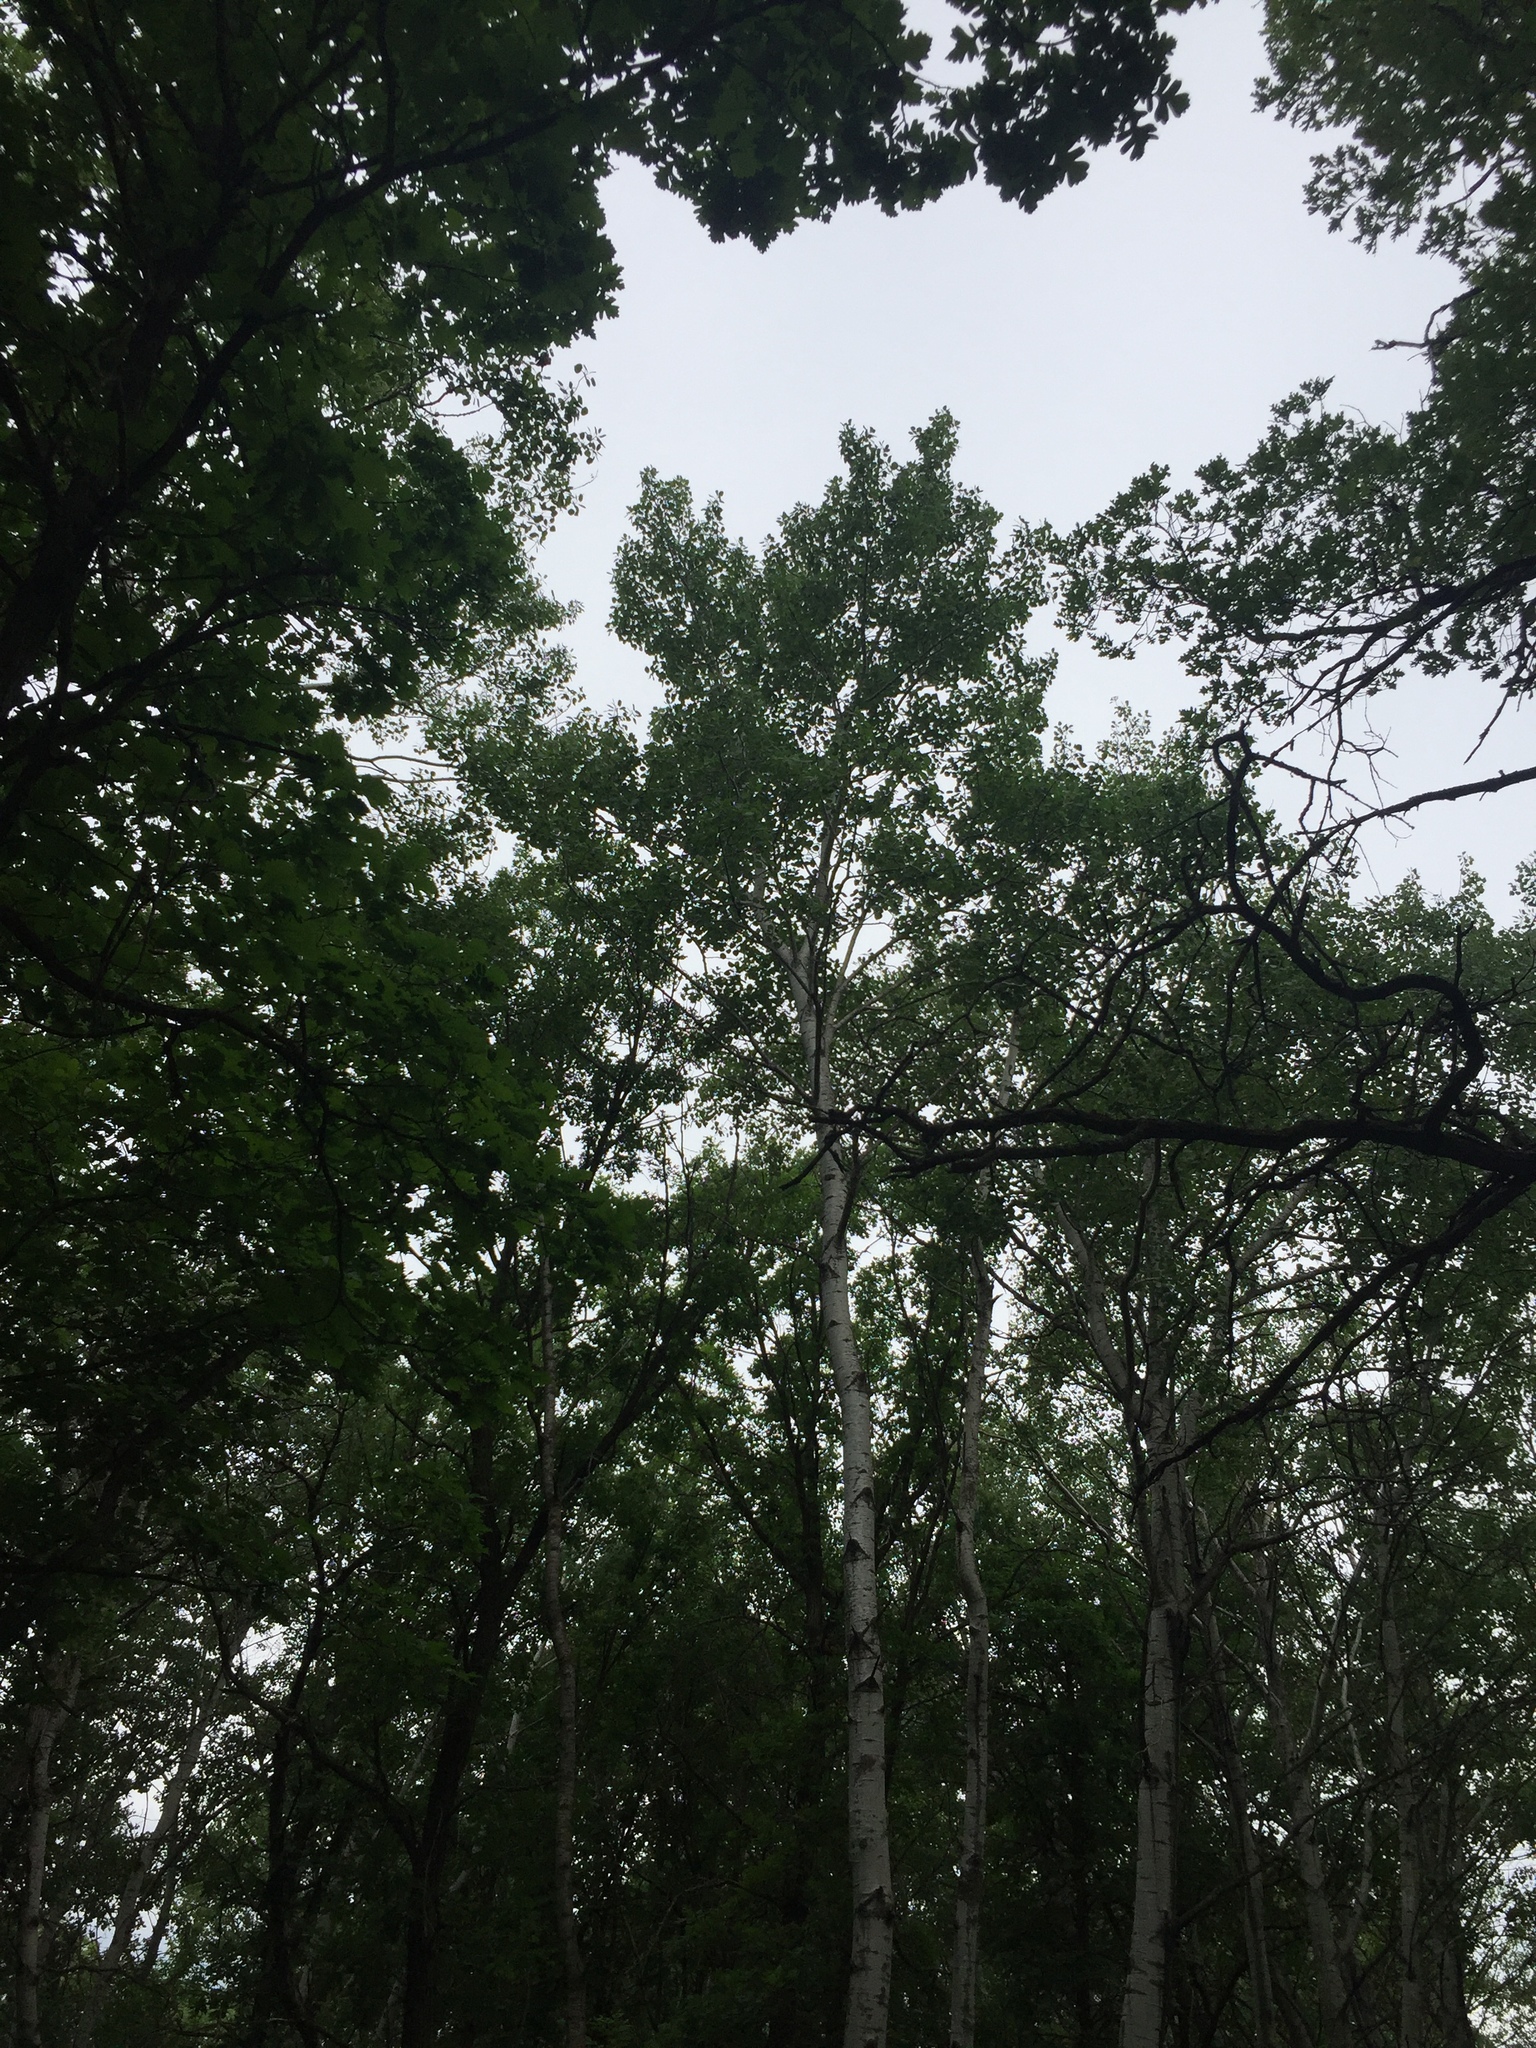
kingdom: Plantae
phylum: Tracheophyta
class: Magnoliopsida
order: Malpighiales
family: Salicaceae
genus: Populus
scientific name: Populus tremuloides
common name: Quaking aspen
